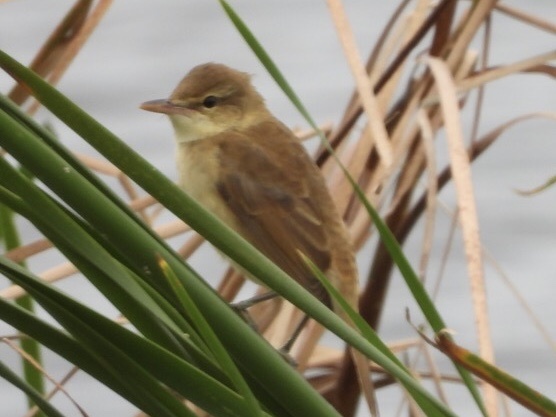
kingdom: Animalia
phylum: Chordata
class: Aves
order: Passeriformes
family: Acrocephalidae
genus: Acrocephalus
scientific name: Acrocephalus orientalis
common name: Oriental reed warbler
